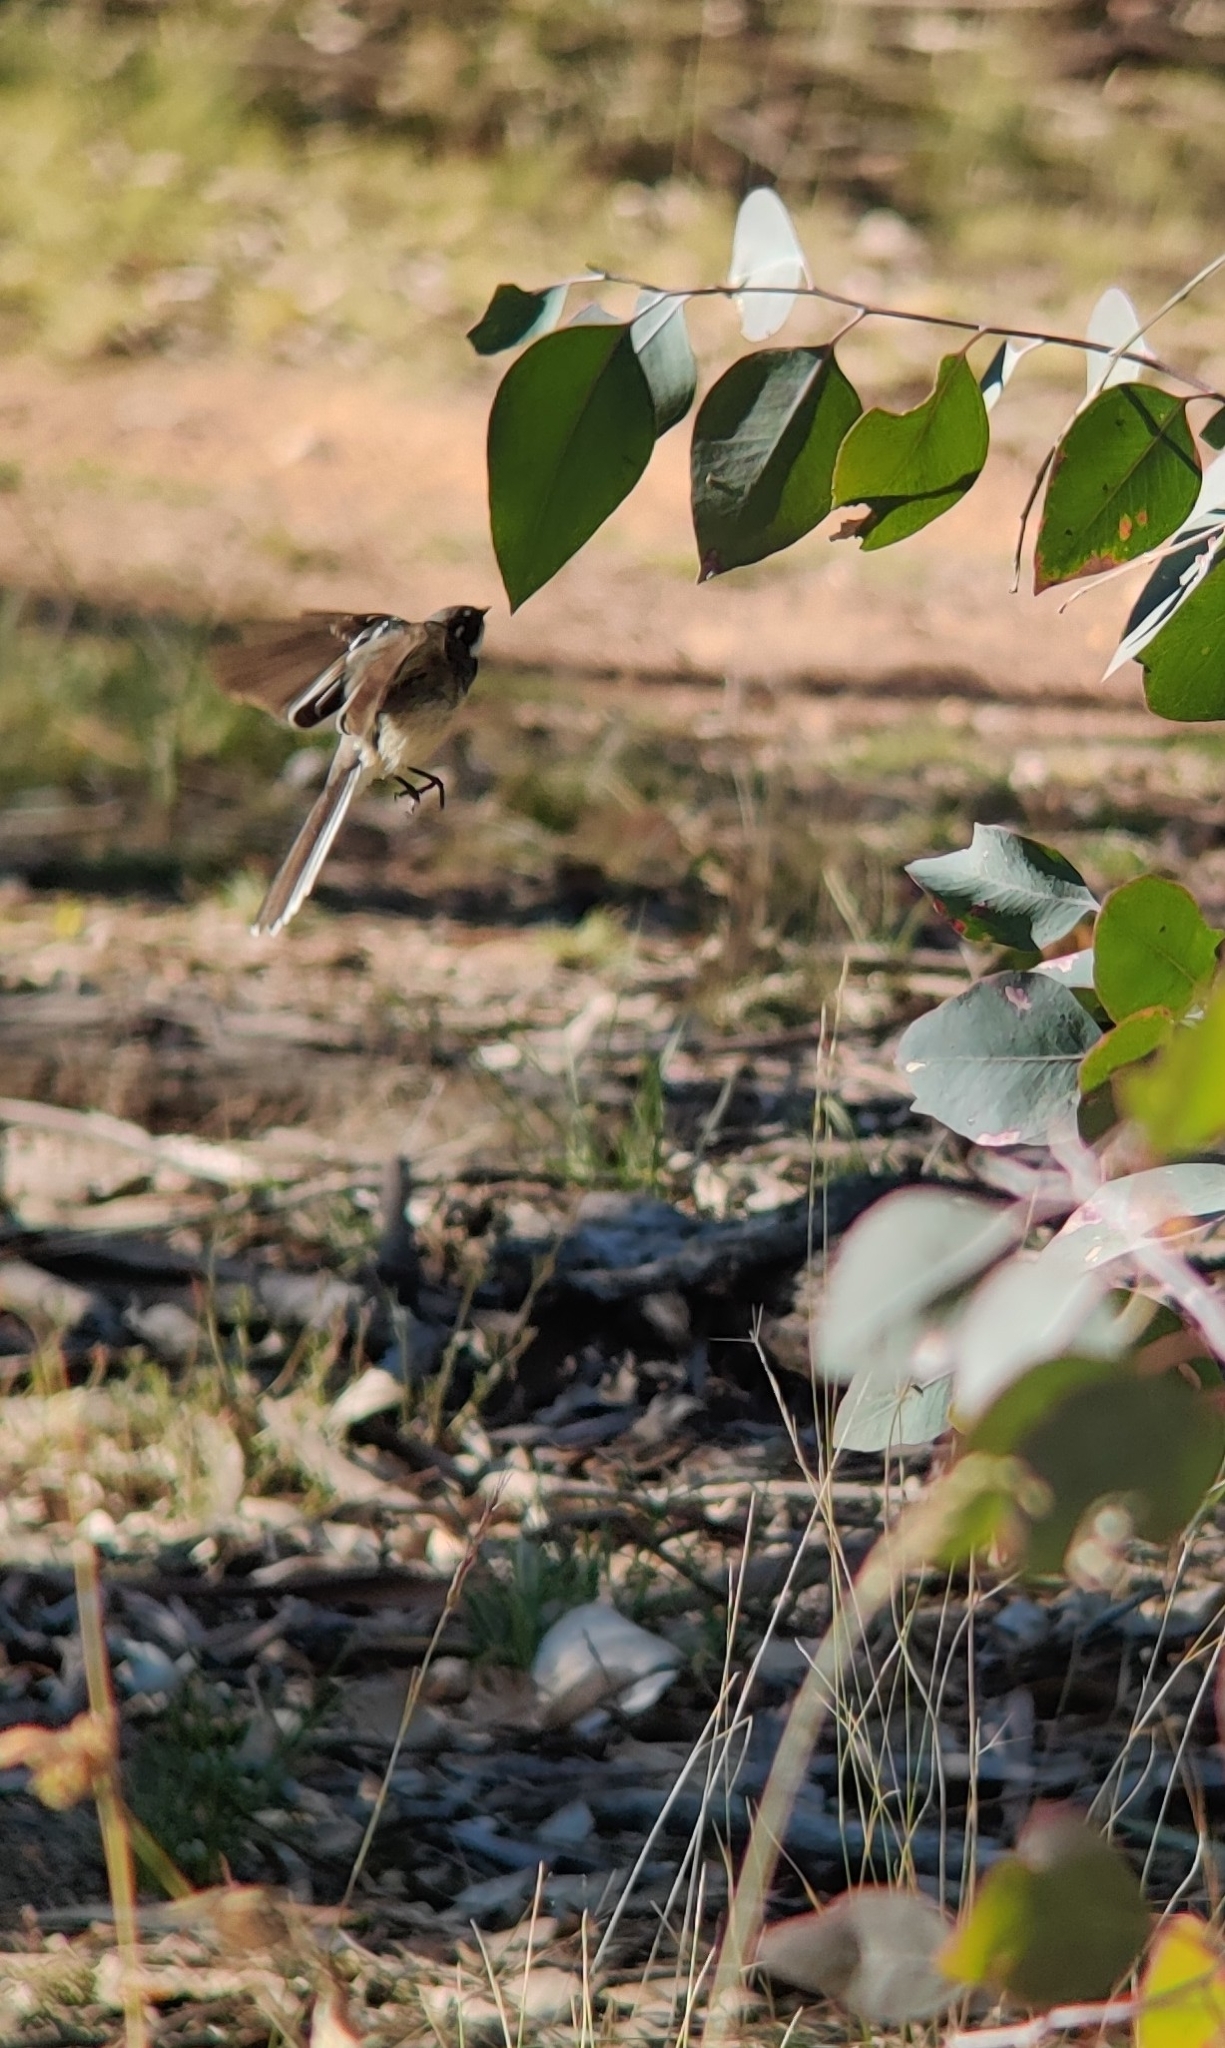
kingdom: Animalia
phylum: Chordata
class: Aves
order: Passeriformes
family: Rhipiduridae
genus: Rhipidura
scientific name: Rhipidura albiscapa
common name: Grey fantail
